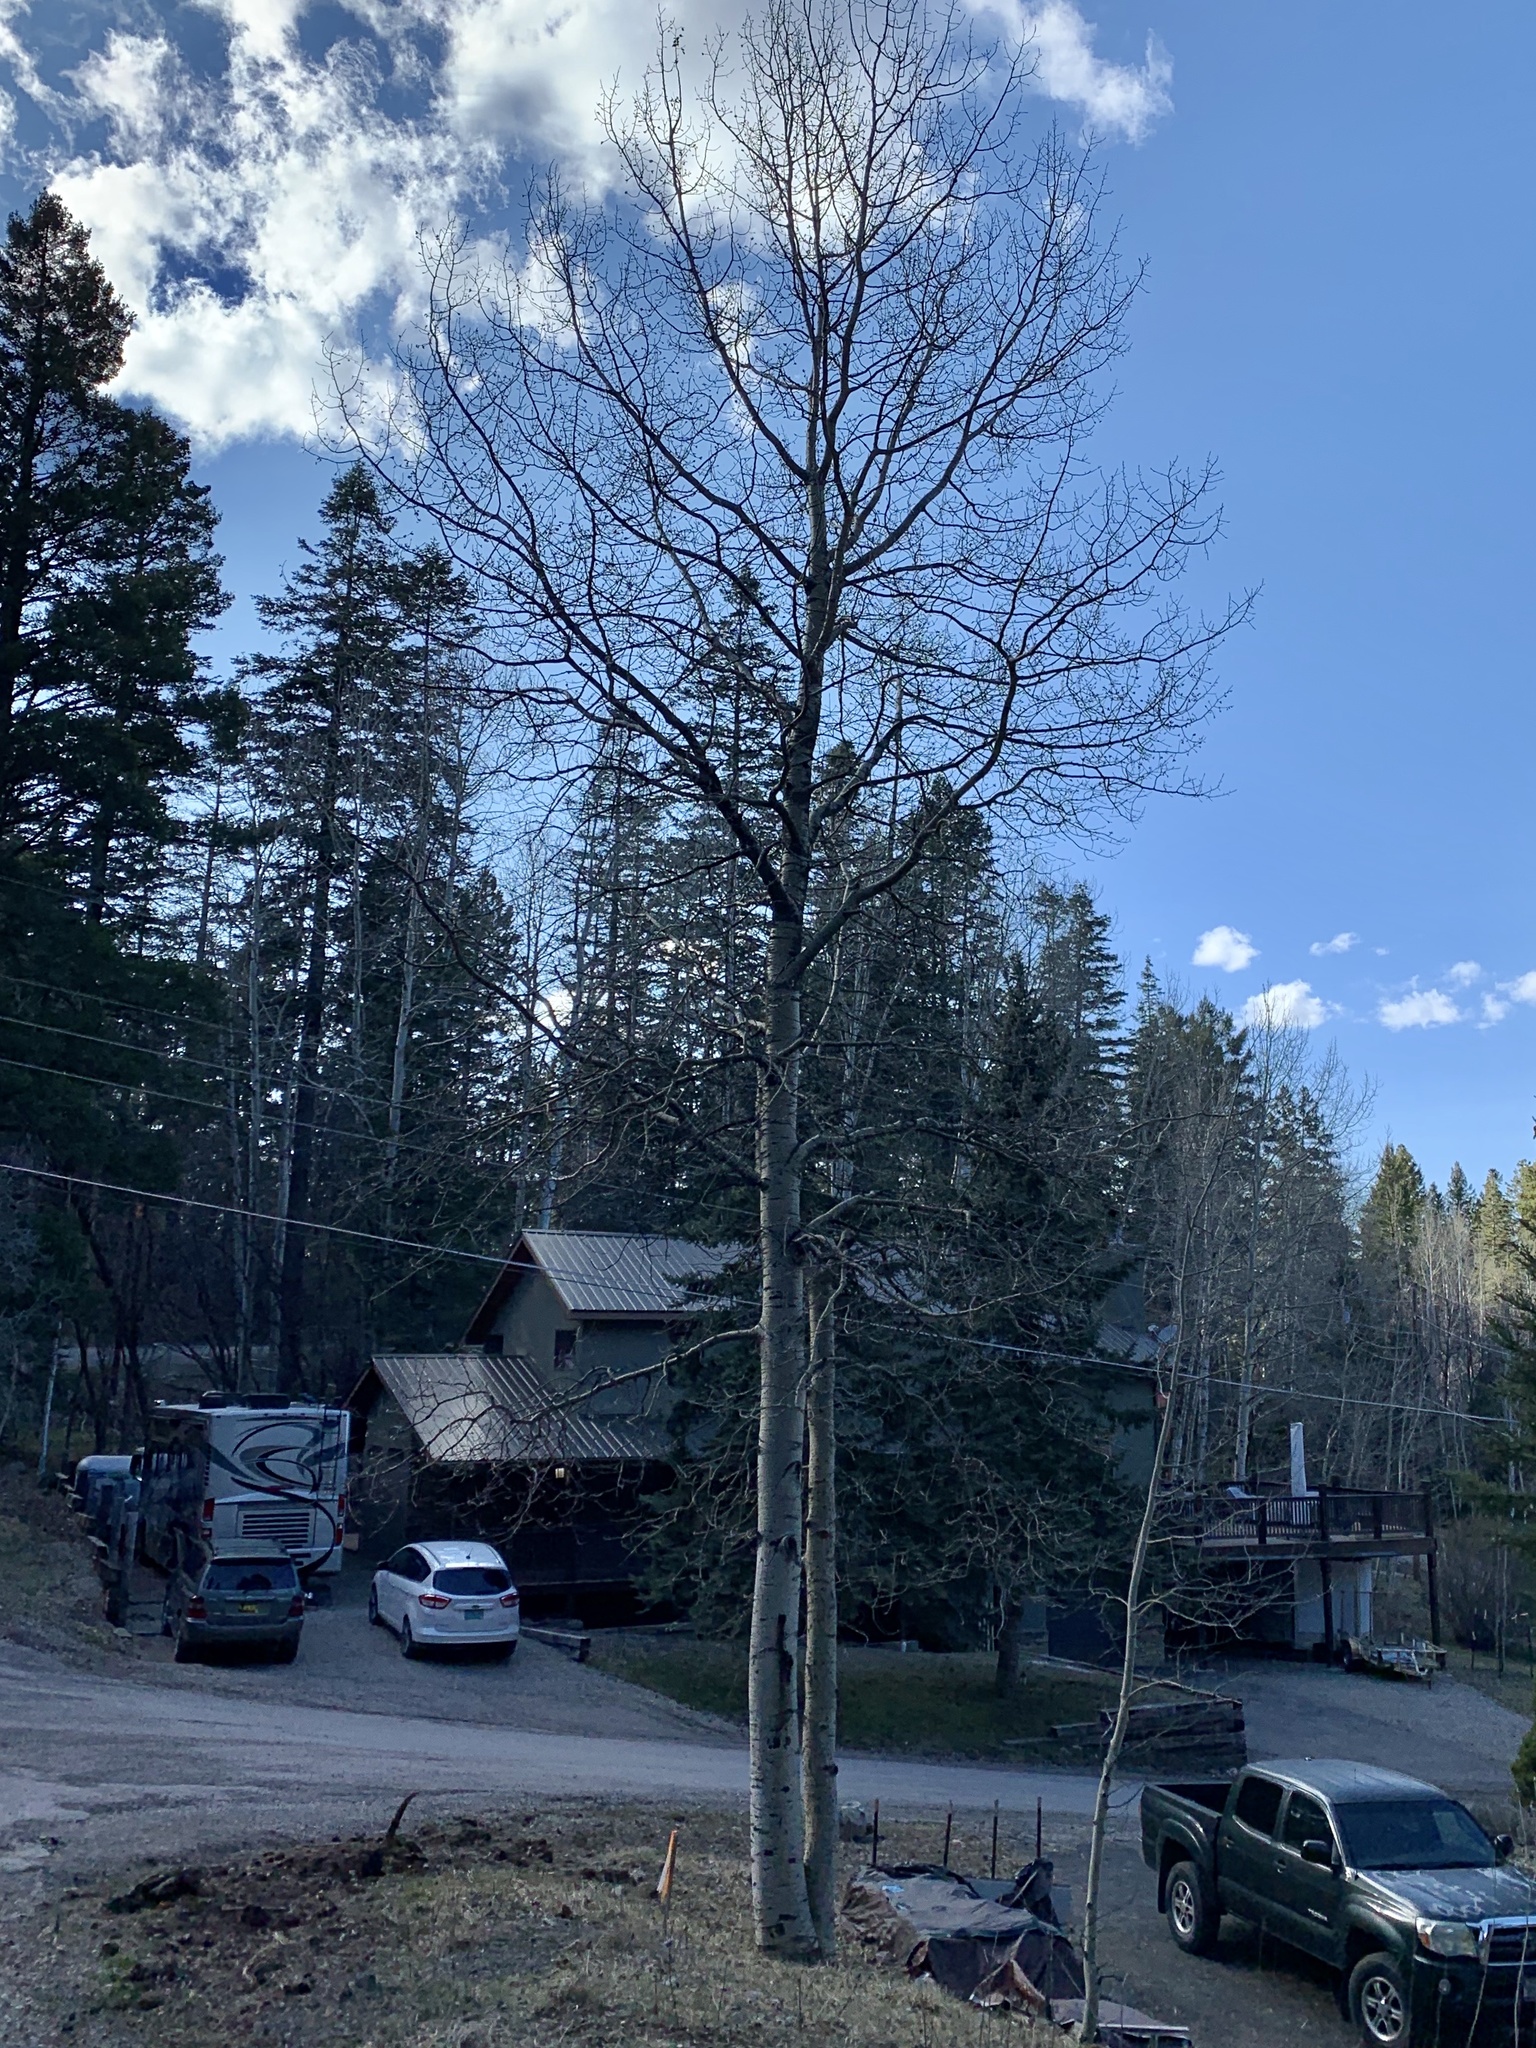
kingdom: Plantae
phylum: Tracheophyta
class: Magnoliopsida
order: Malpighiales
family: Salicaceae
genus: Populus
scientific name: Populus tremuloides
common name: Quaking aspen
